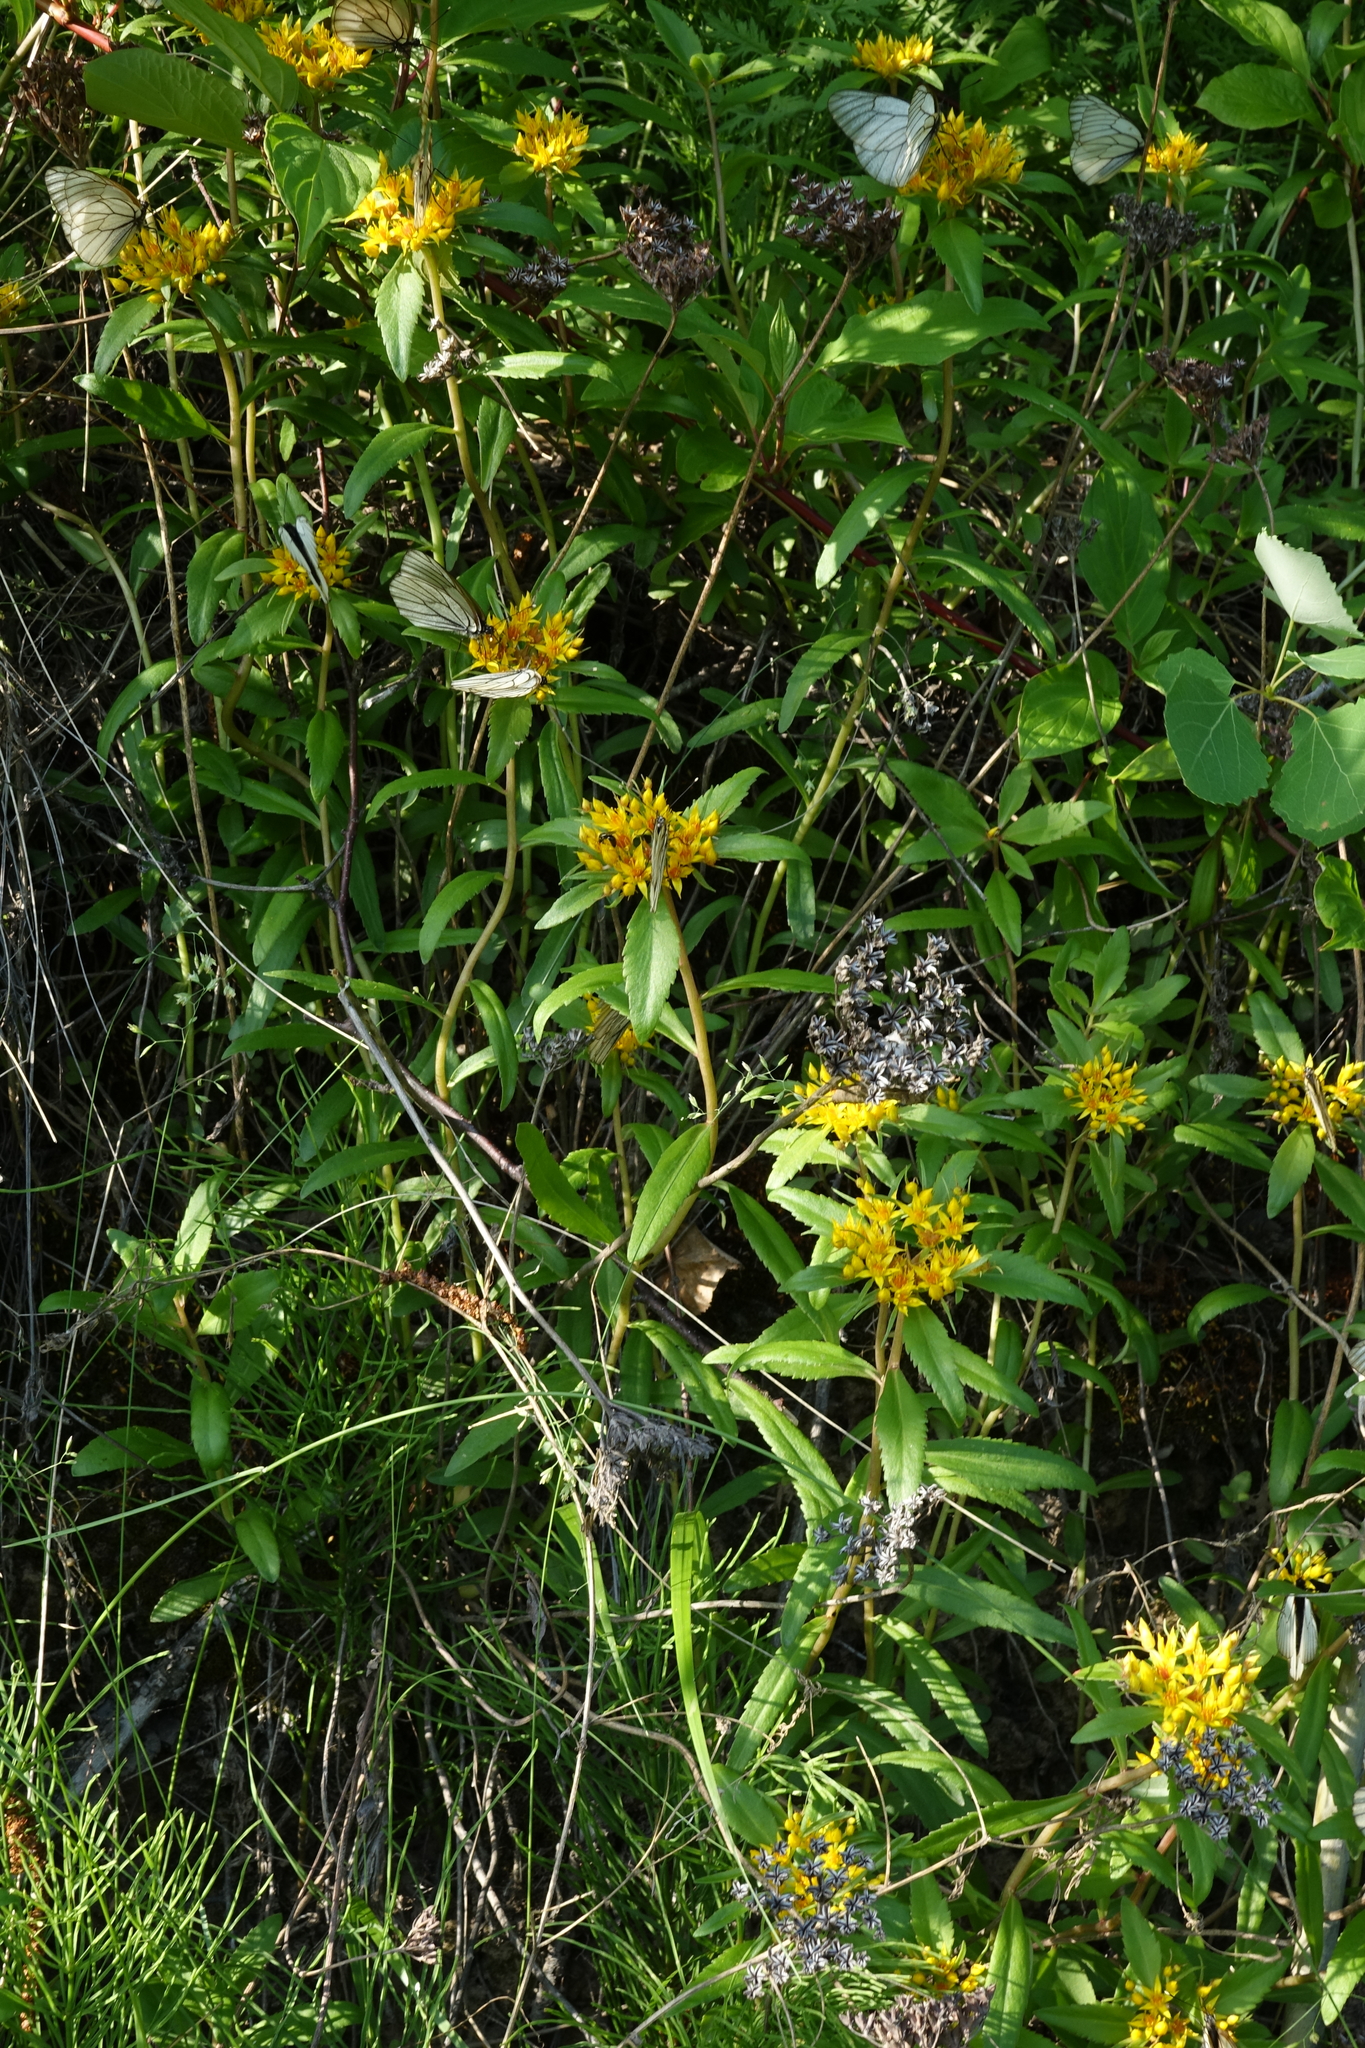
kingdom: Plantae
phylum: Tracheophyta
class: Magnoliopsida
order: Saxifragales
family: Crassulaceae
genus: Phedimus
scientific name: Phedimus aizoon
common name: Orpin aizoon
